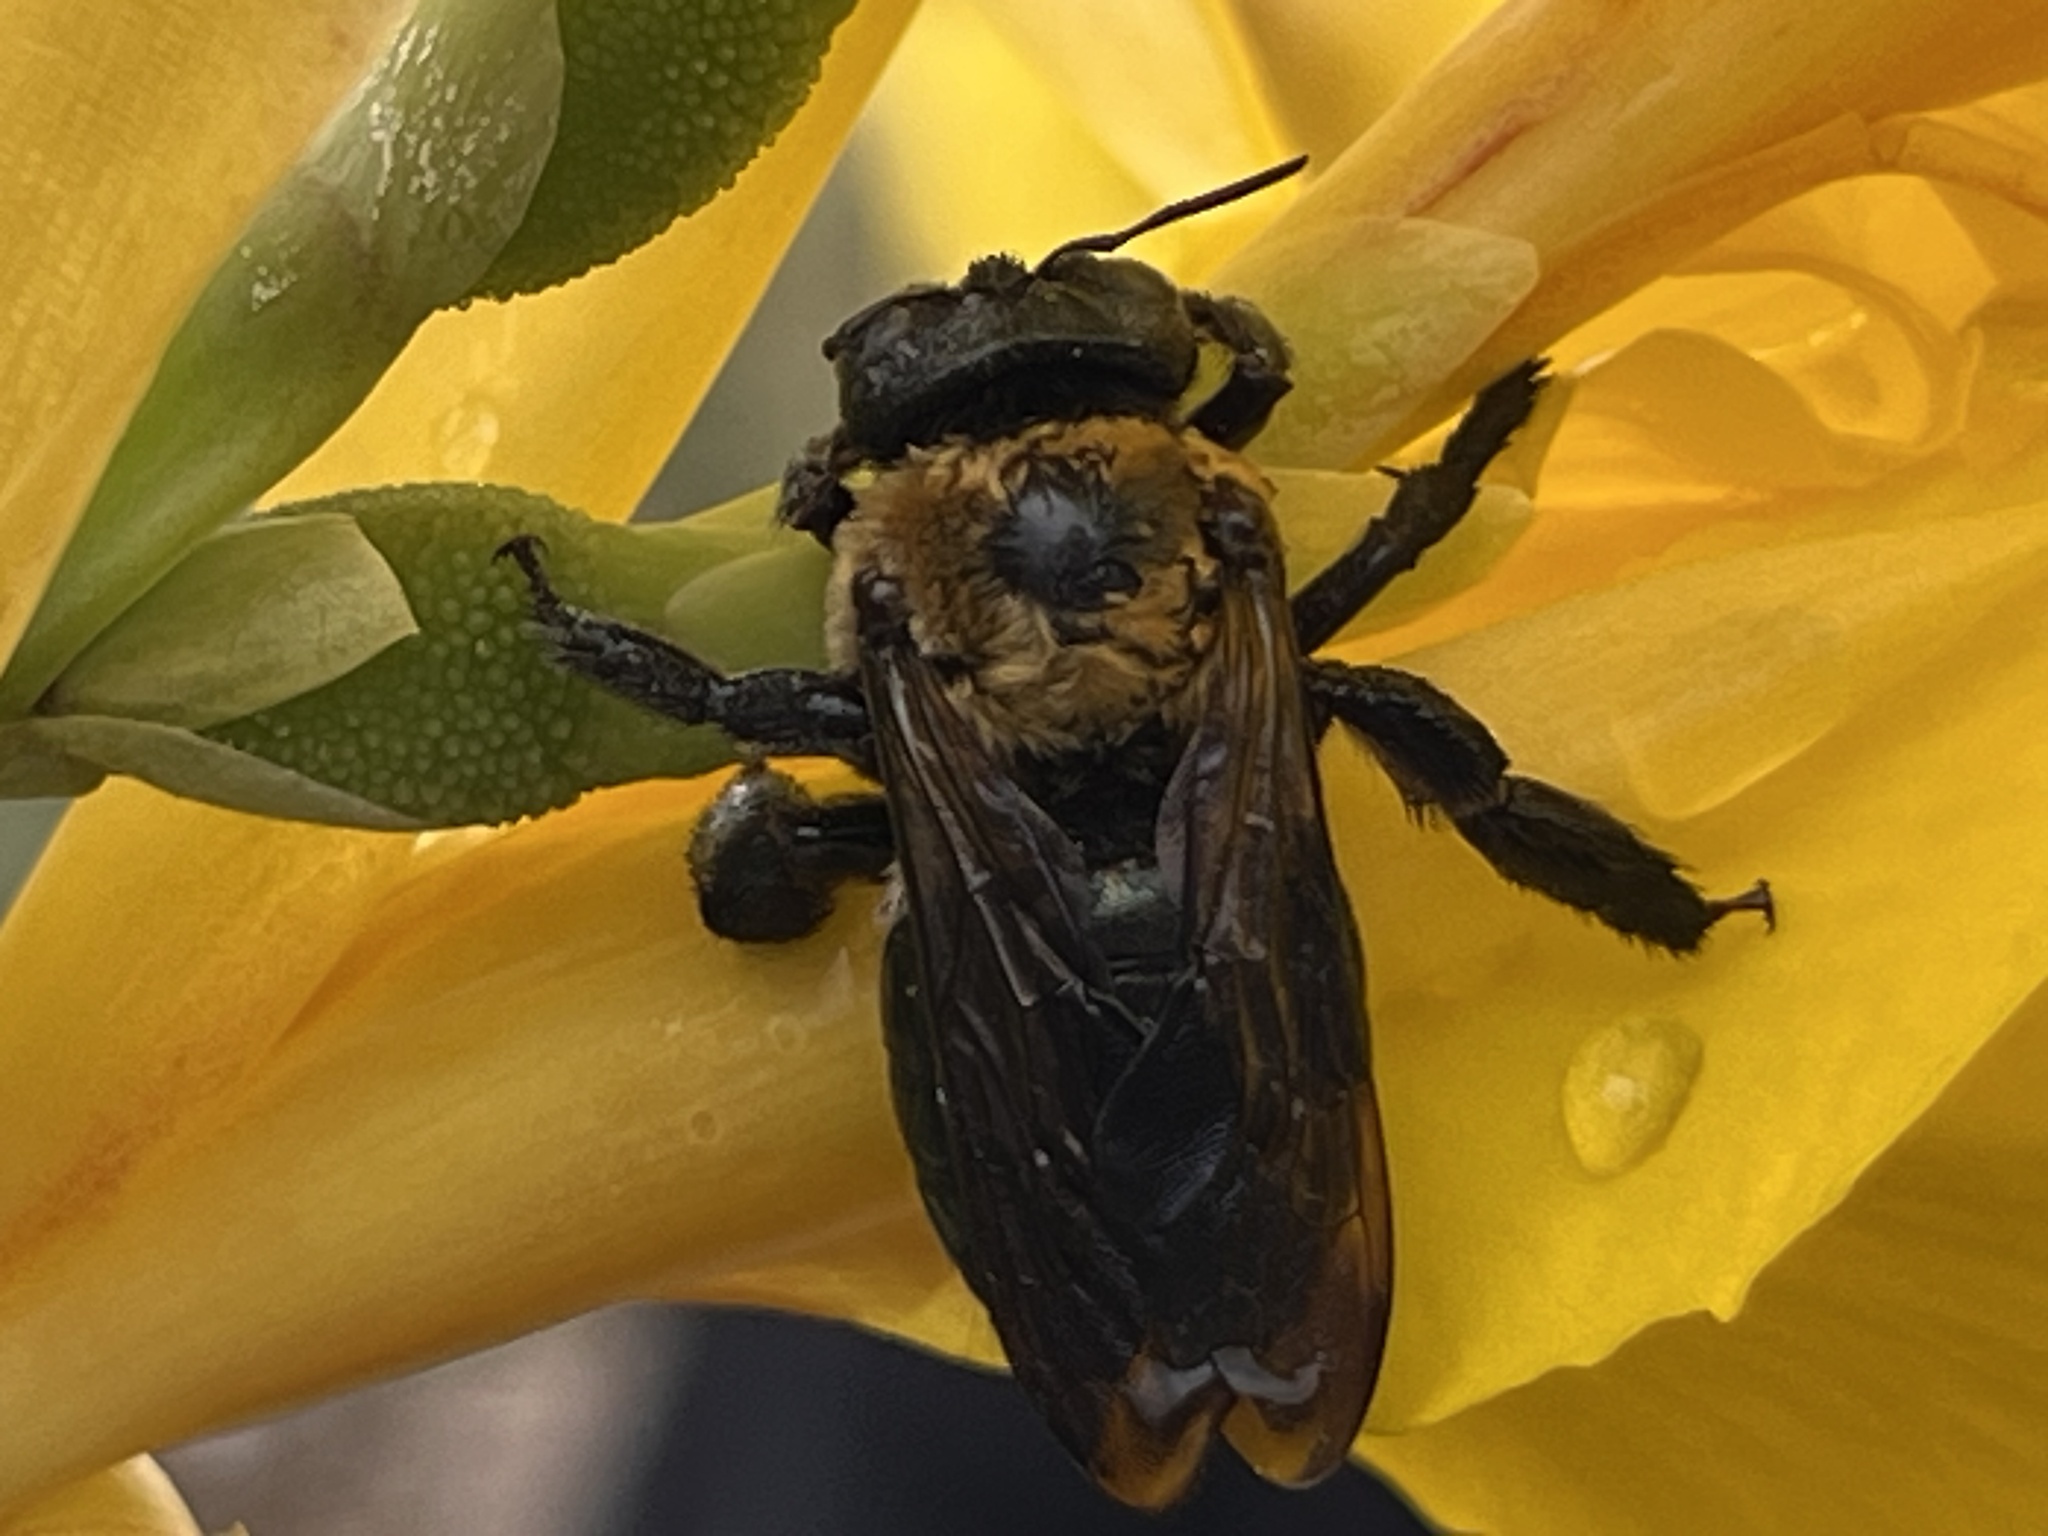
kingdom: Animalia
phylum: Arthropoda
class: Insecta
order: Hymenoptera
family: Apidae
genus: Xylocopa
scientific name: Xylocopa virginica
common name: Carpenter bee
